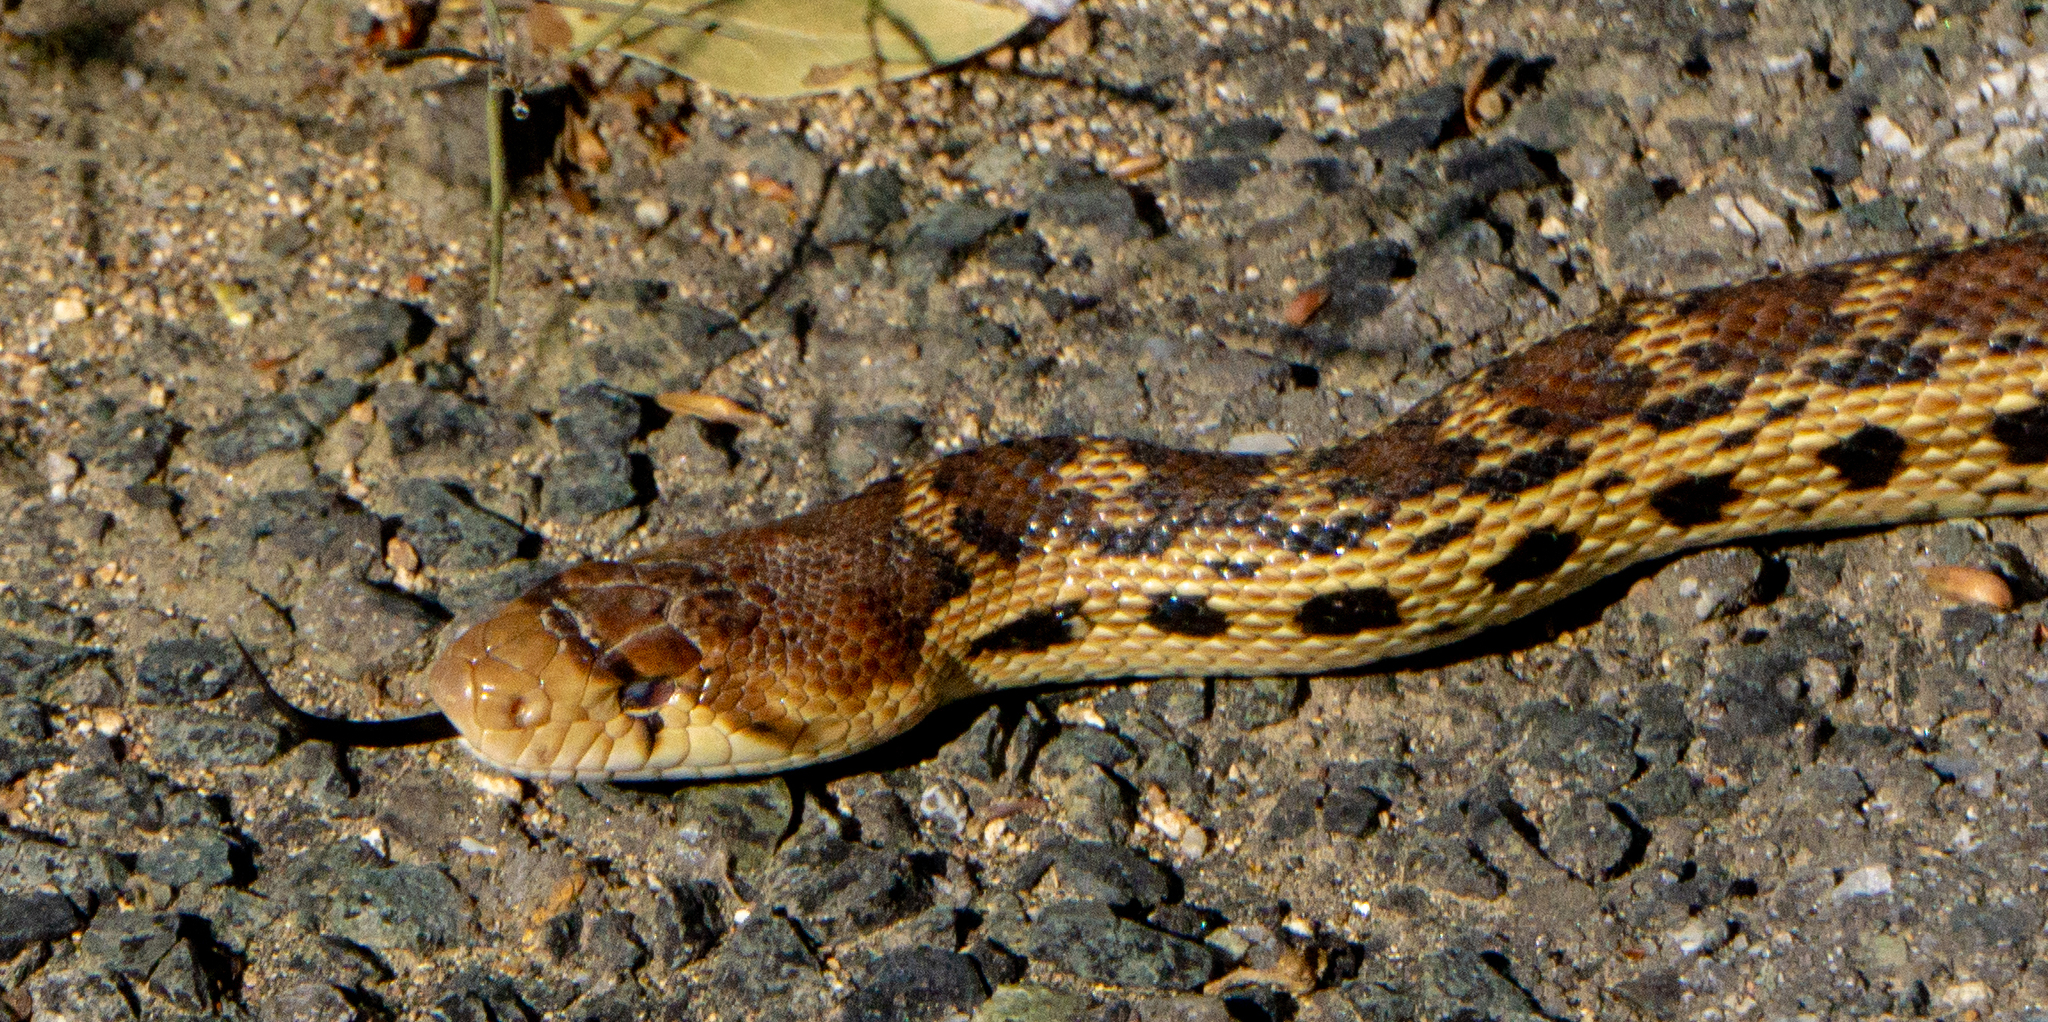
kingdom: Animalia
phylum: Chordata
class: Squamata
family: Colubridae
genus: Pituophis
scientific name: Pituophis catenifer
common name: Gopher snake
